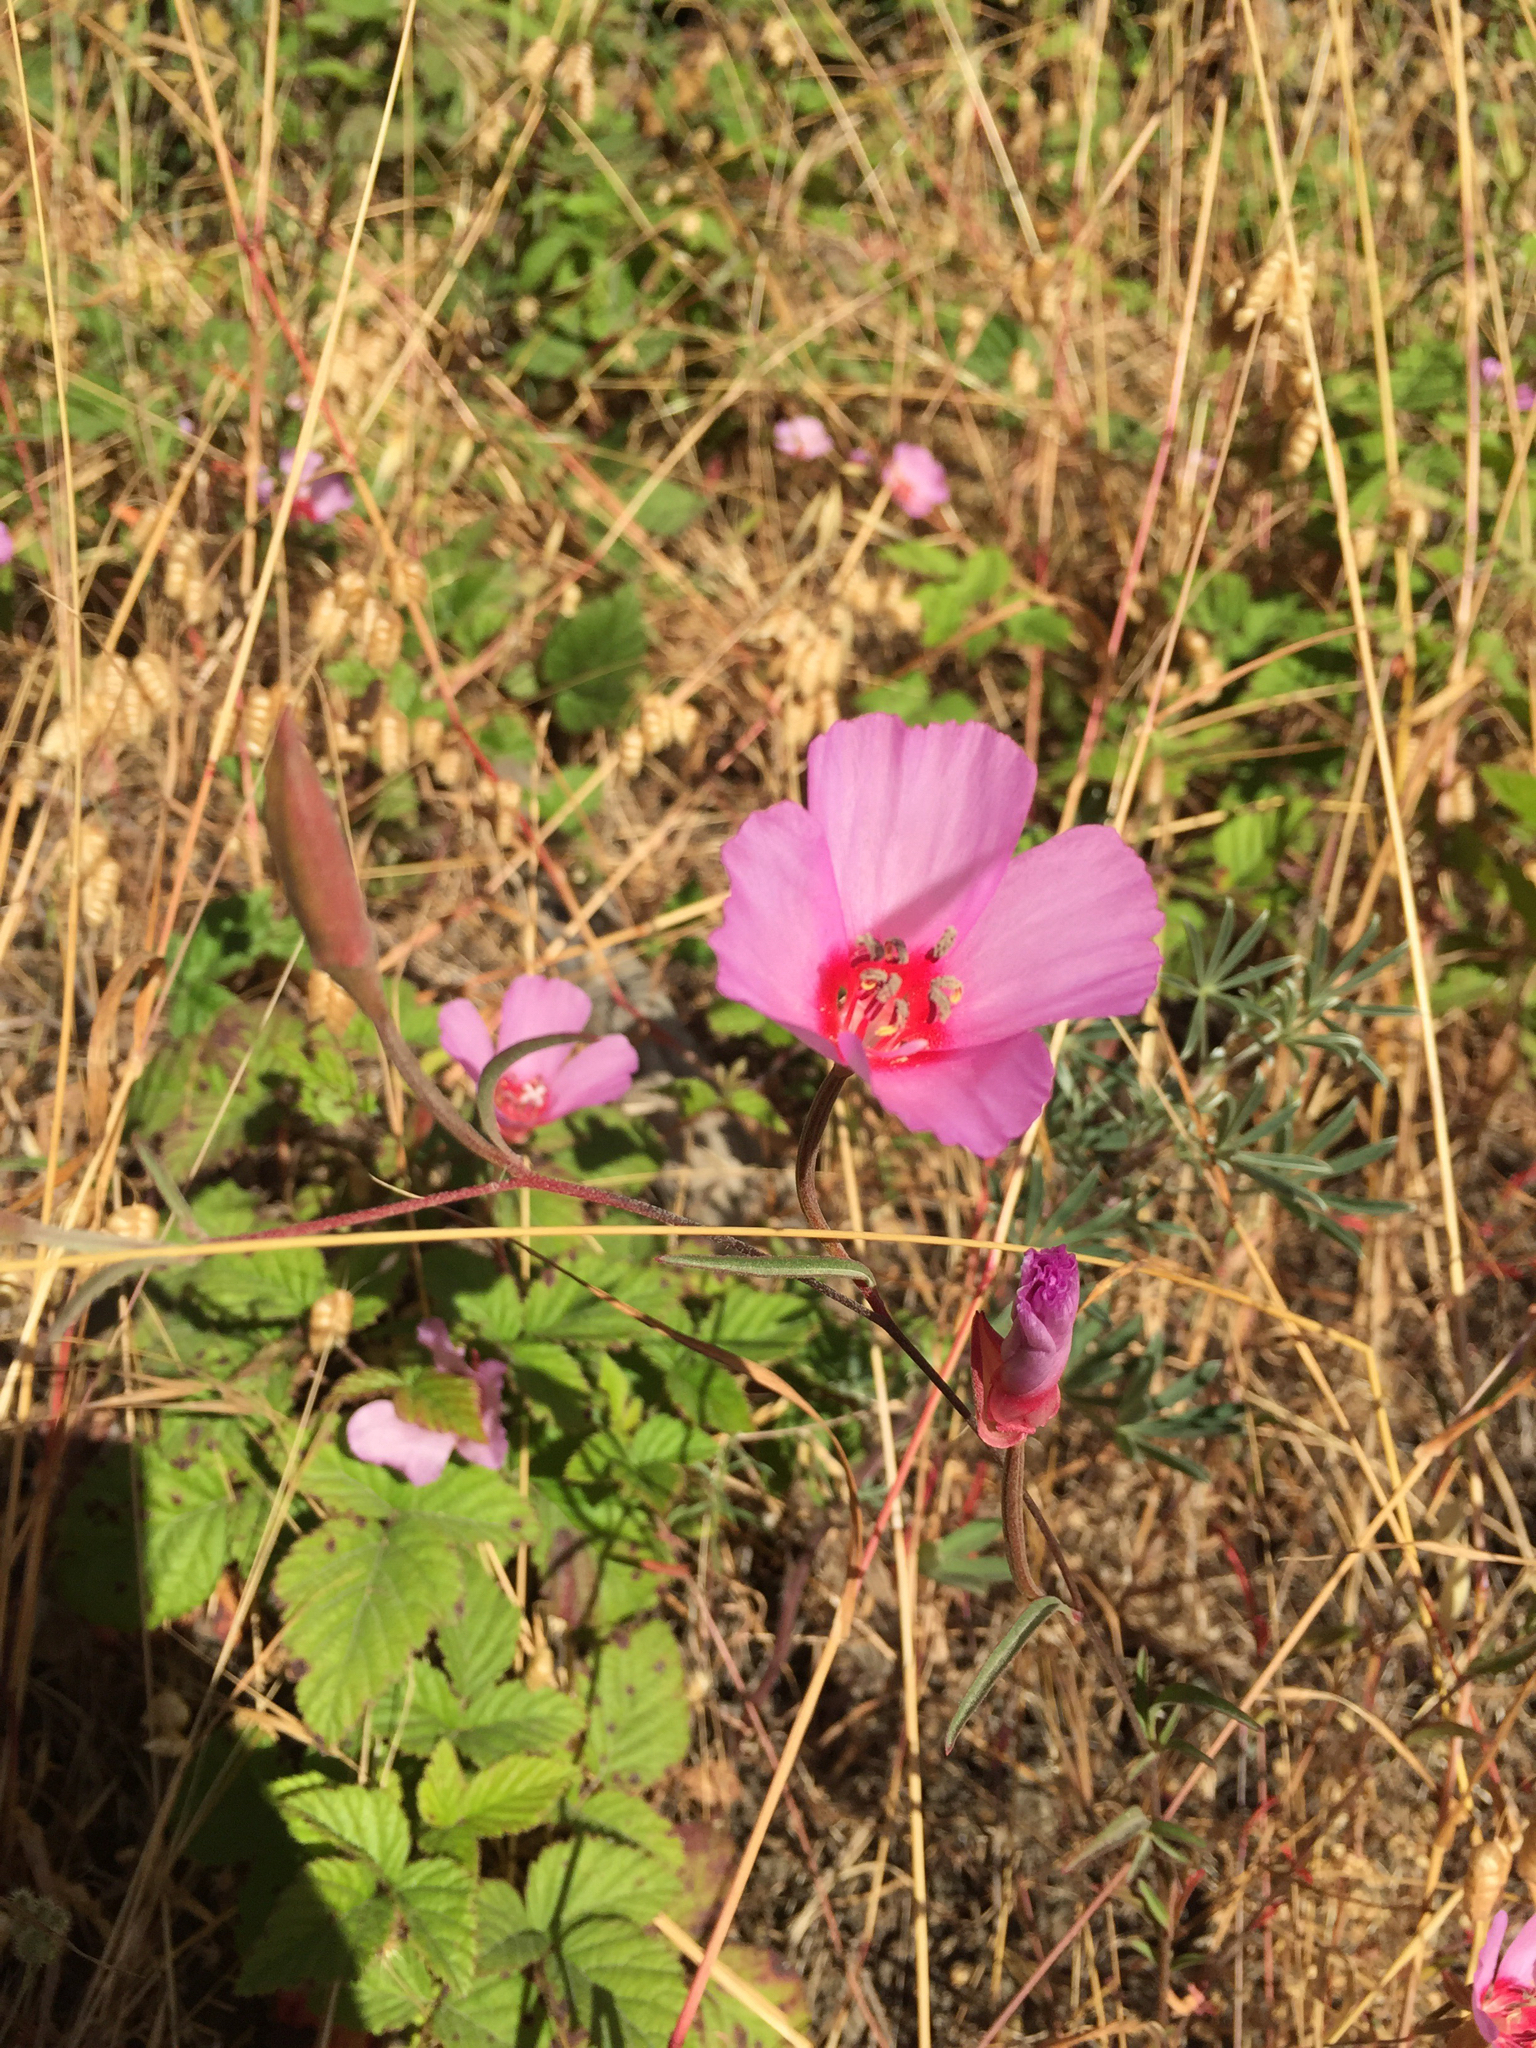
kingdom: Plantae
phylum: Tracheophyta
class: Magnoliopsida
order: Myrtales
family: Onagraceae
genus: Clarkia
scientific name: Clarkia rubicunda
